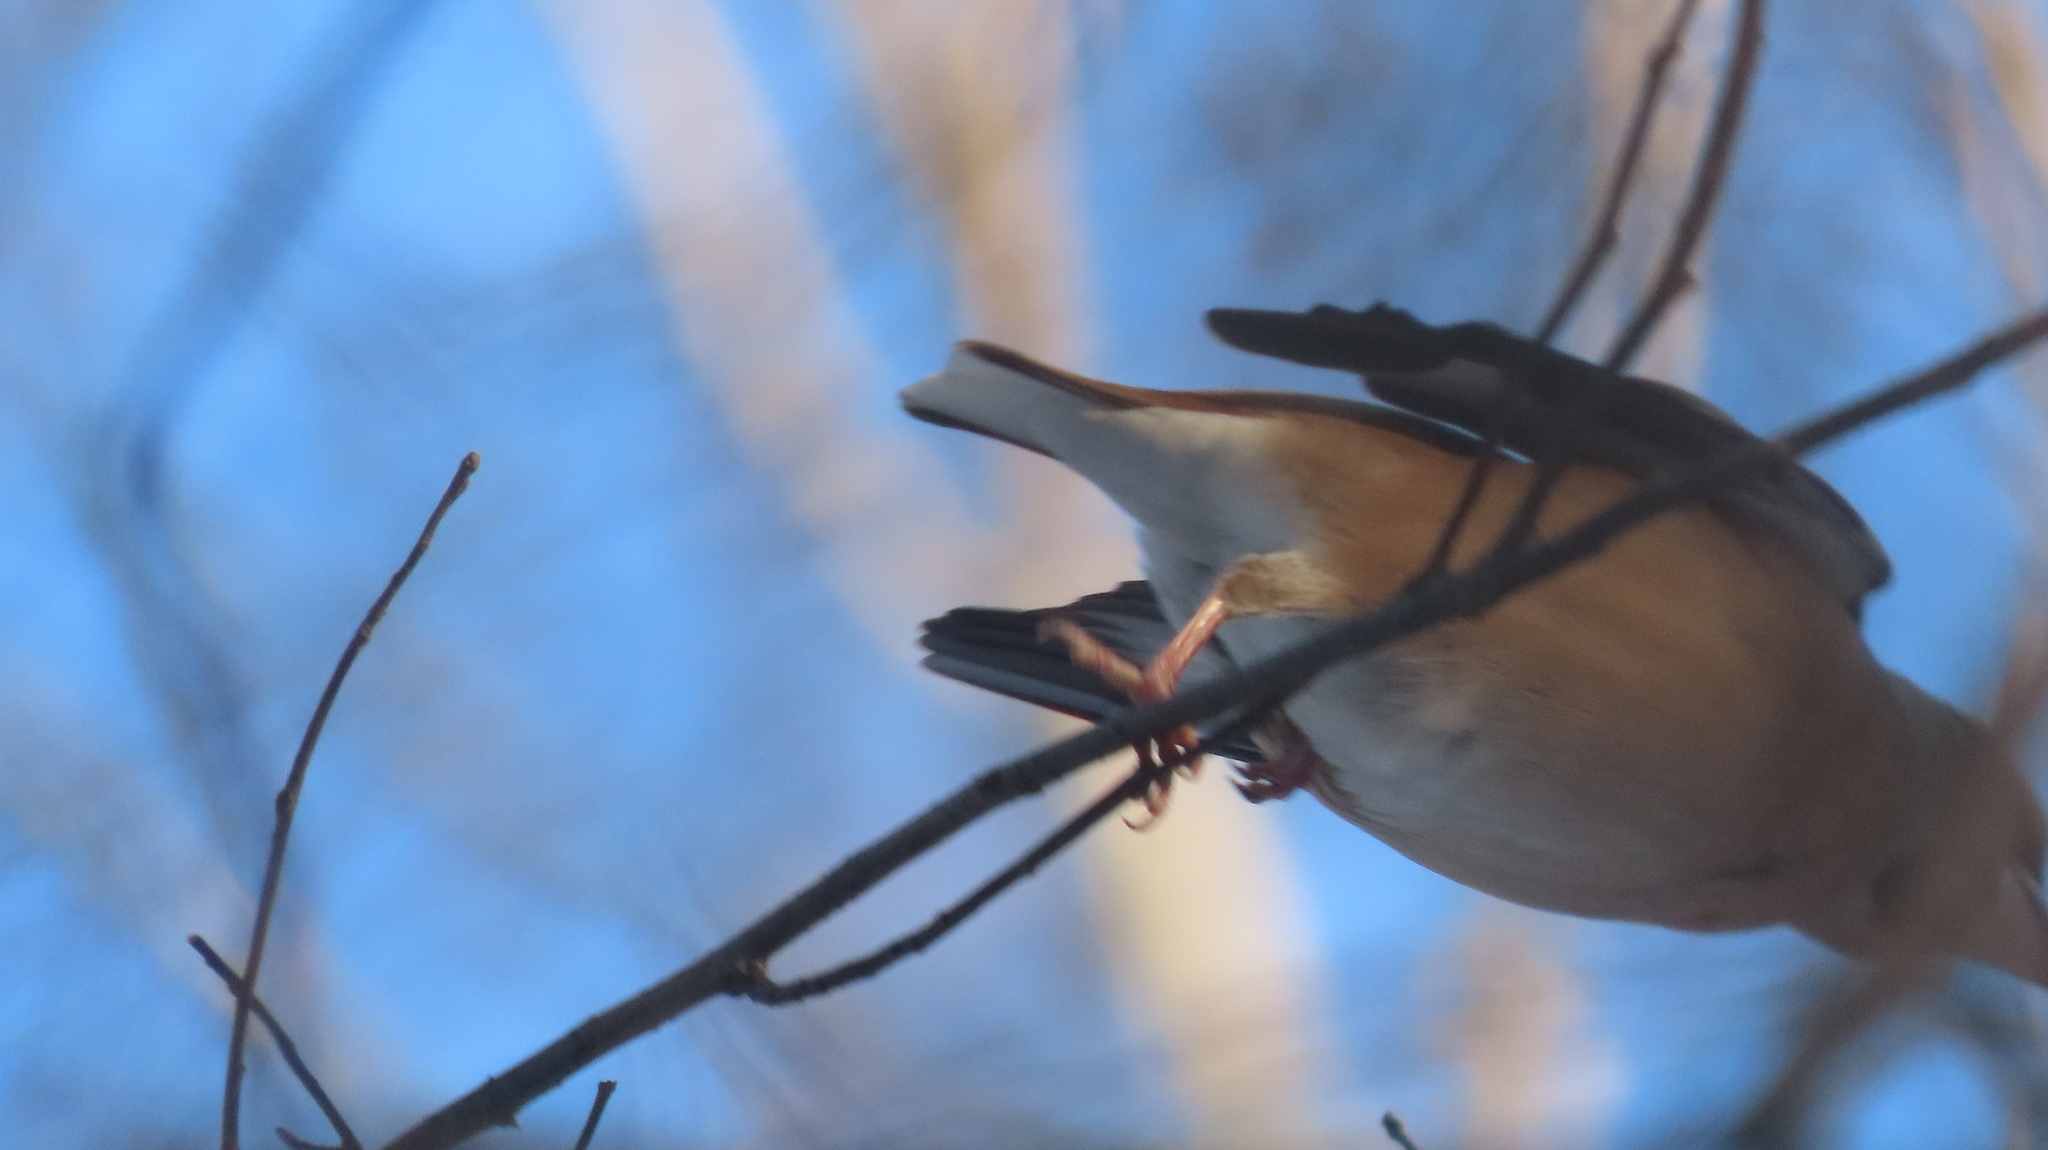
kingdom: Animalia
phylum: Chordata
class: Aves
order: Passeriformes
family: Fringillidae
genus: Coccothraustes
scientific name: Coccothraustes coccothraustes
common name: Hawfinch
